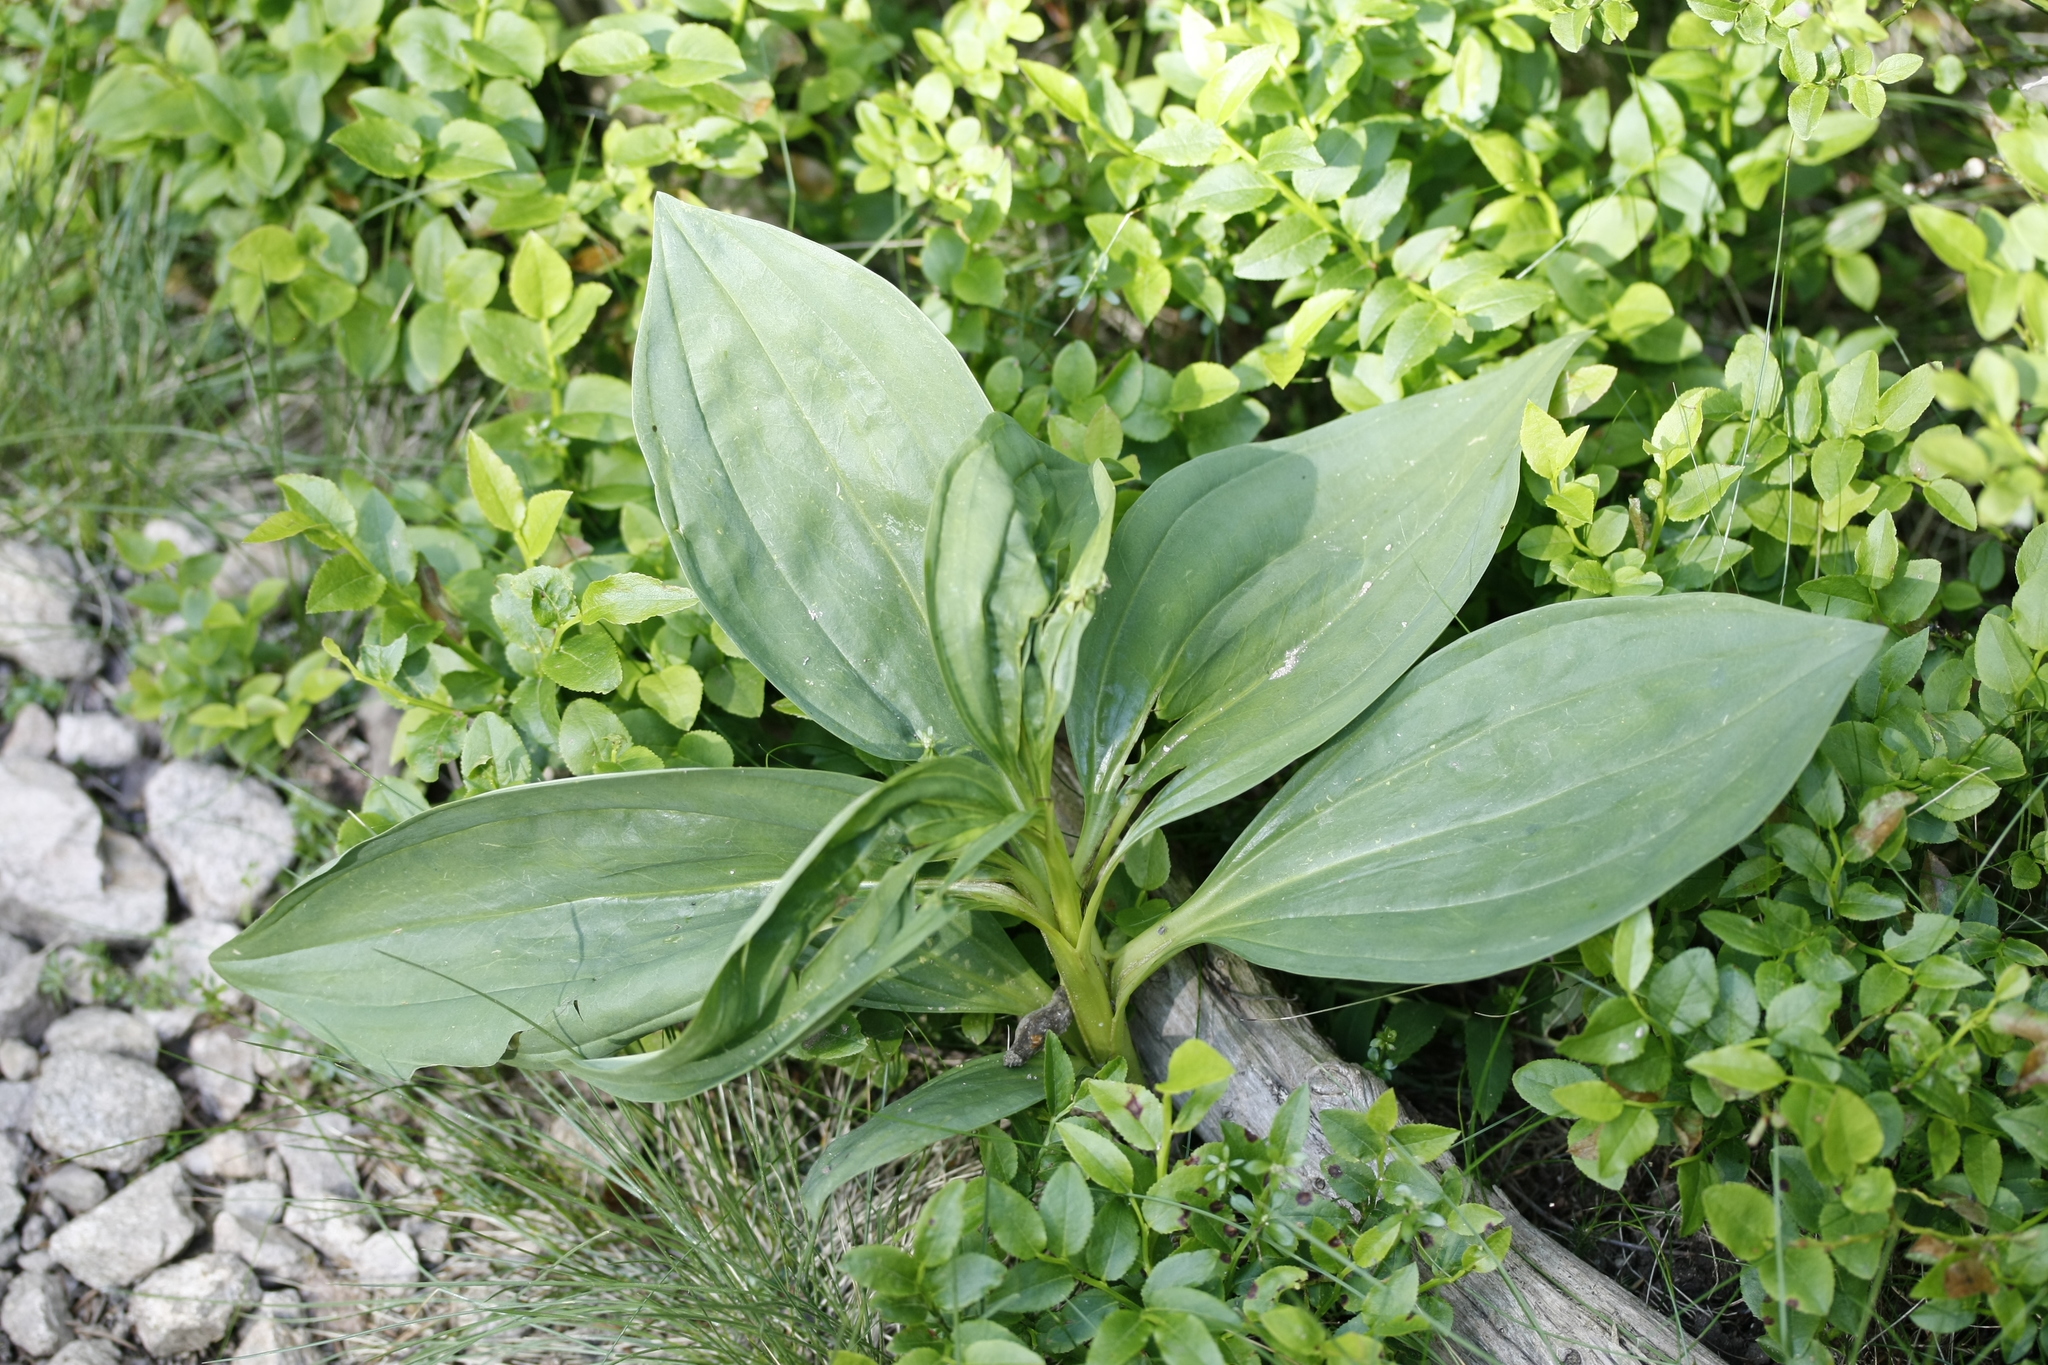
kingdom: Plantae
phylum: Tracheophyta
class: Magnoliopsida
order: Gentianales
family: Gentianaceae
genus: Gentiana
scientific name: Gentiana lutea
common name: Great yellow gentian
